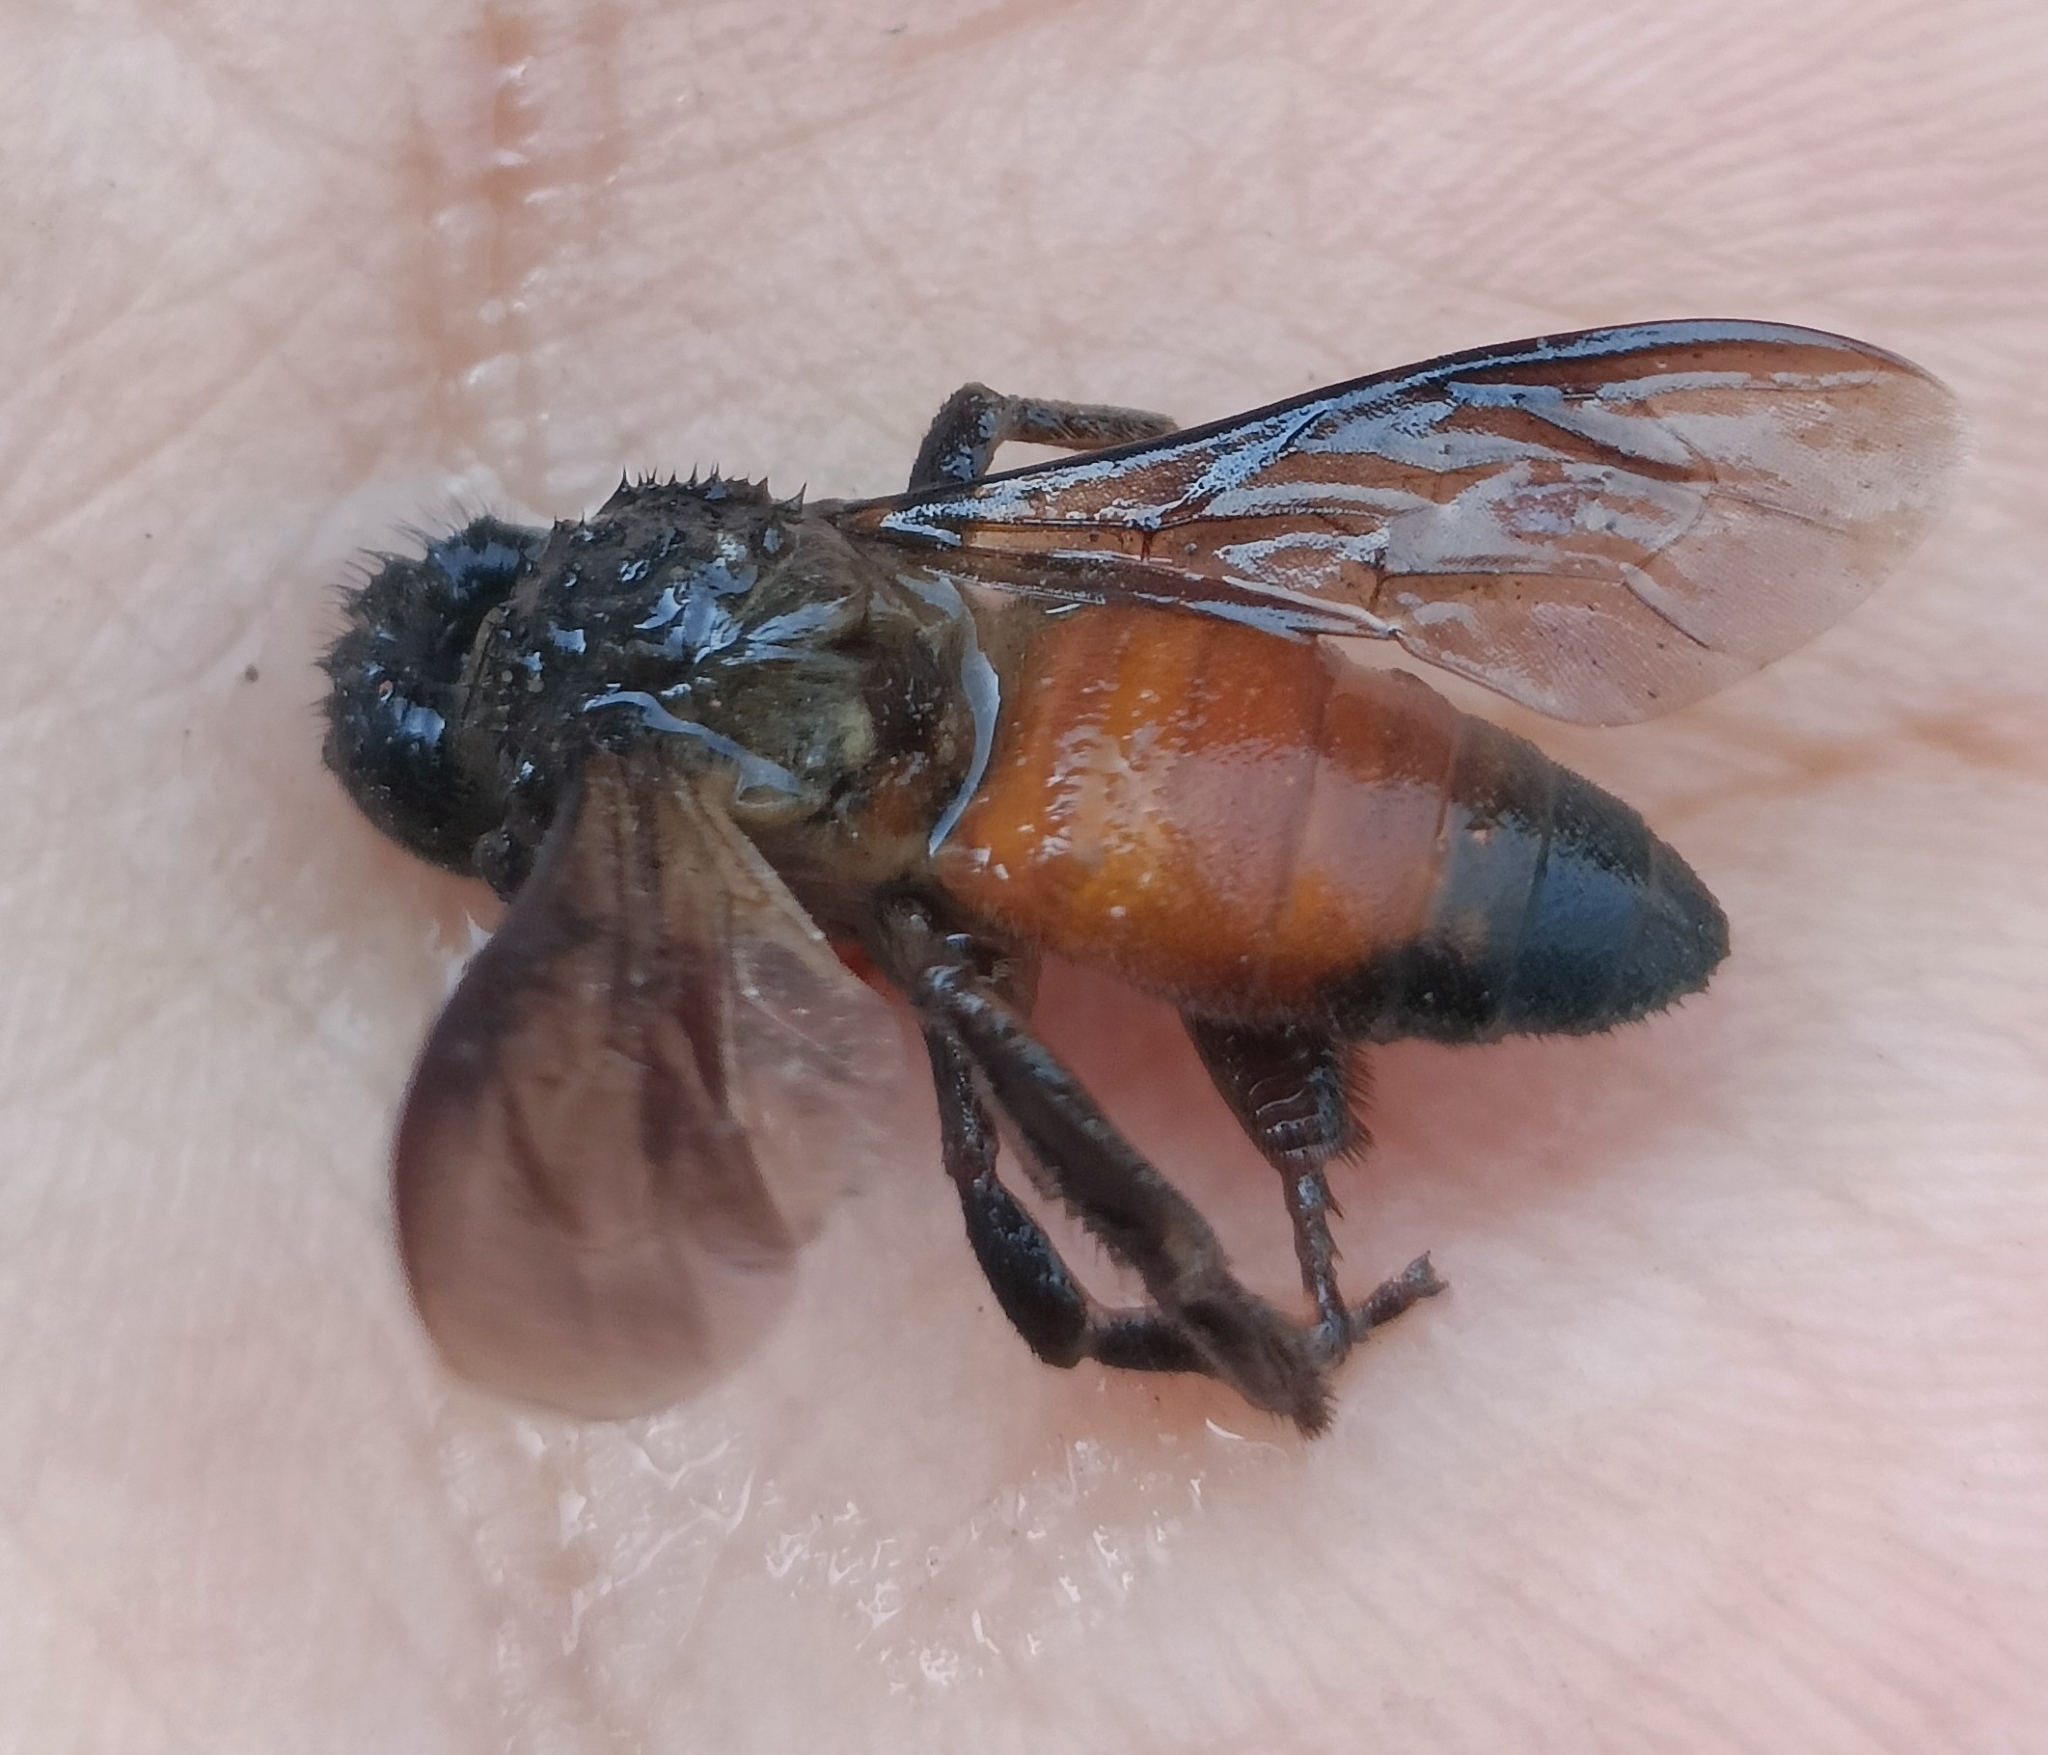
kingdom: Animalia
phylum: Arthropoda
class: Insecta
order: Hymenoptera
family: Apidae
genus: Apis
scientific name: Apis dorsata
